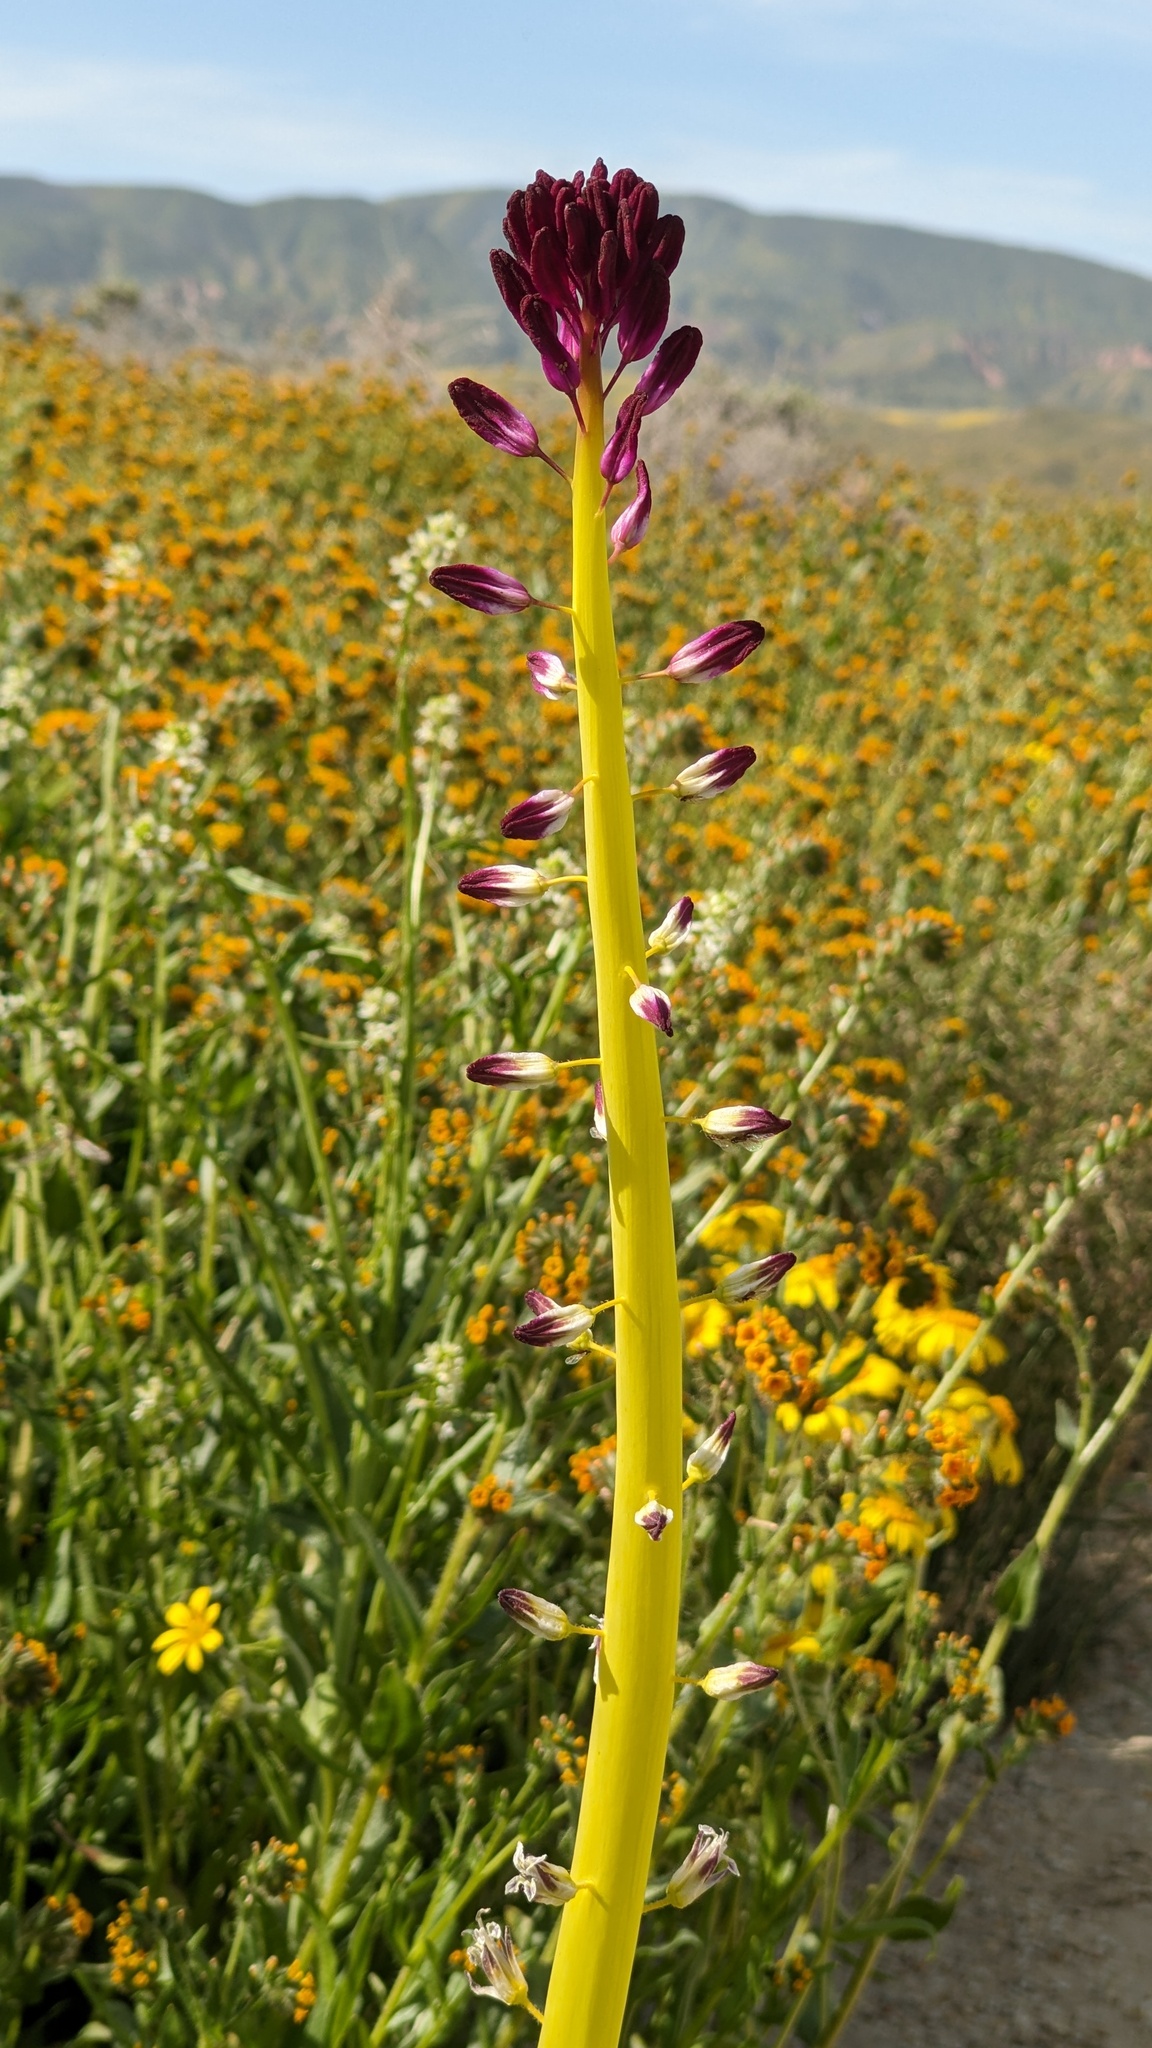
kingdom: Plantae
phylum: Tracheophyta
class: Magnoliopsida
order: Brassicales
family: Brassicaceae
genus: Streptanthus
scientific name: Streptanthus inflatus
